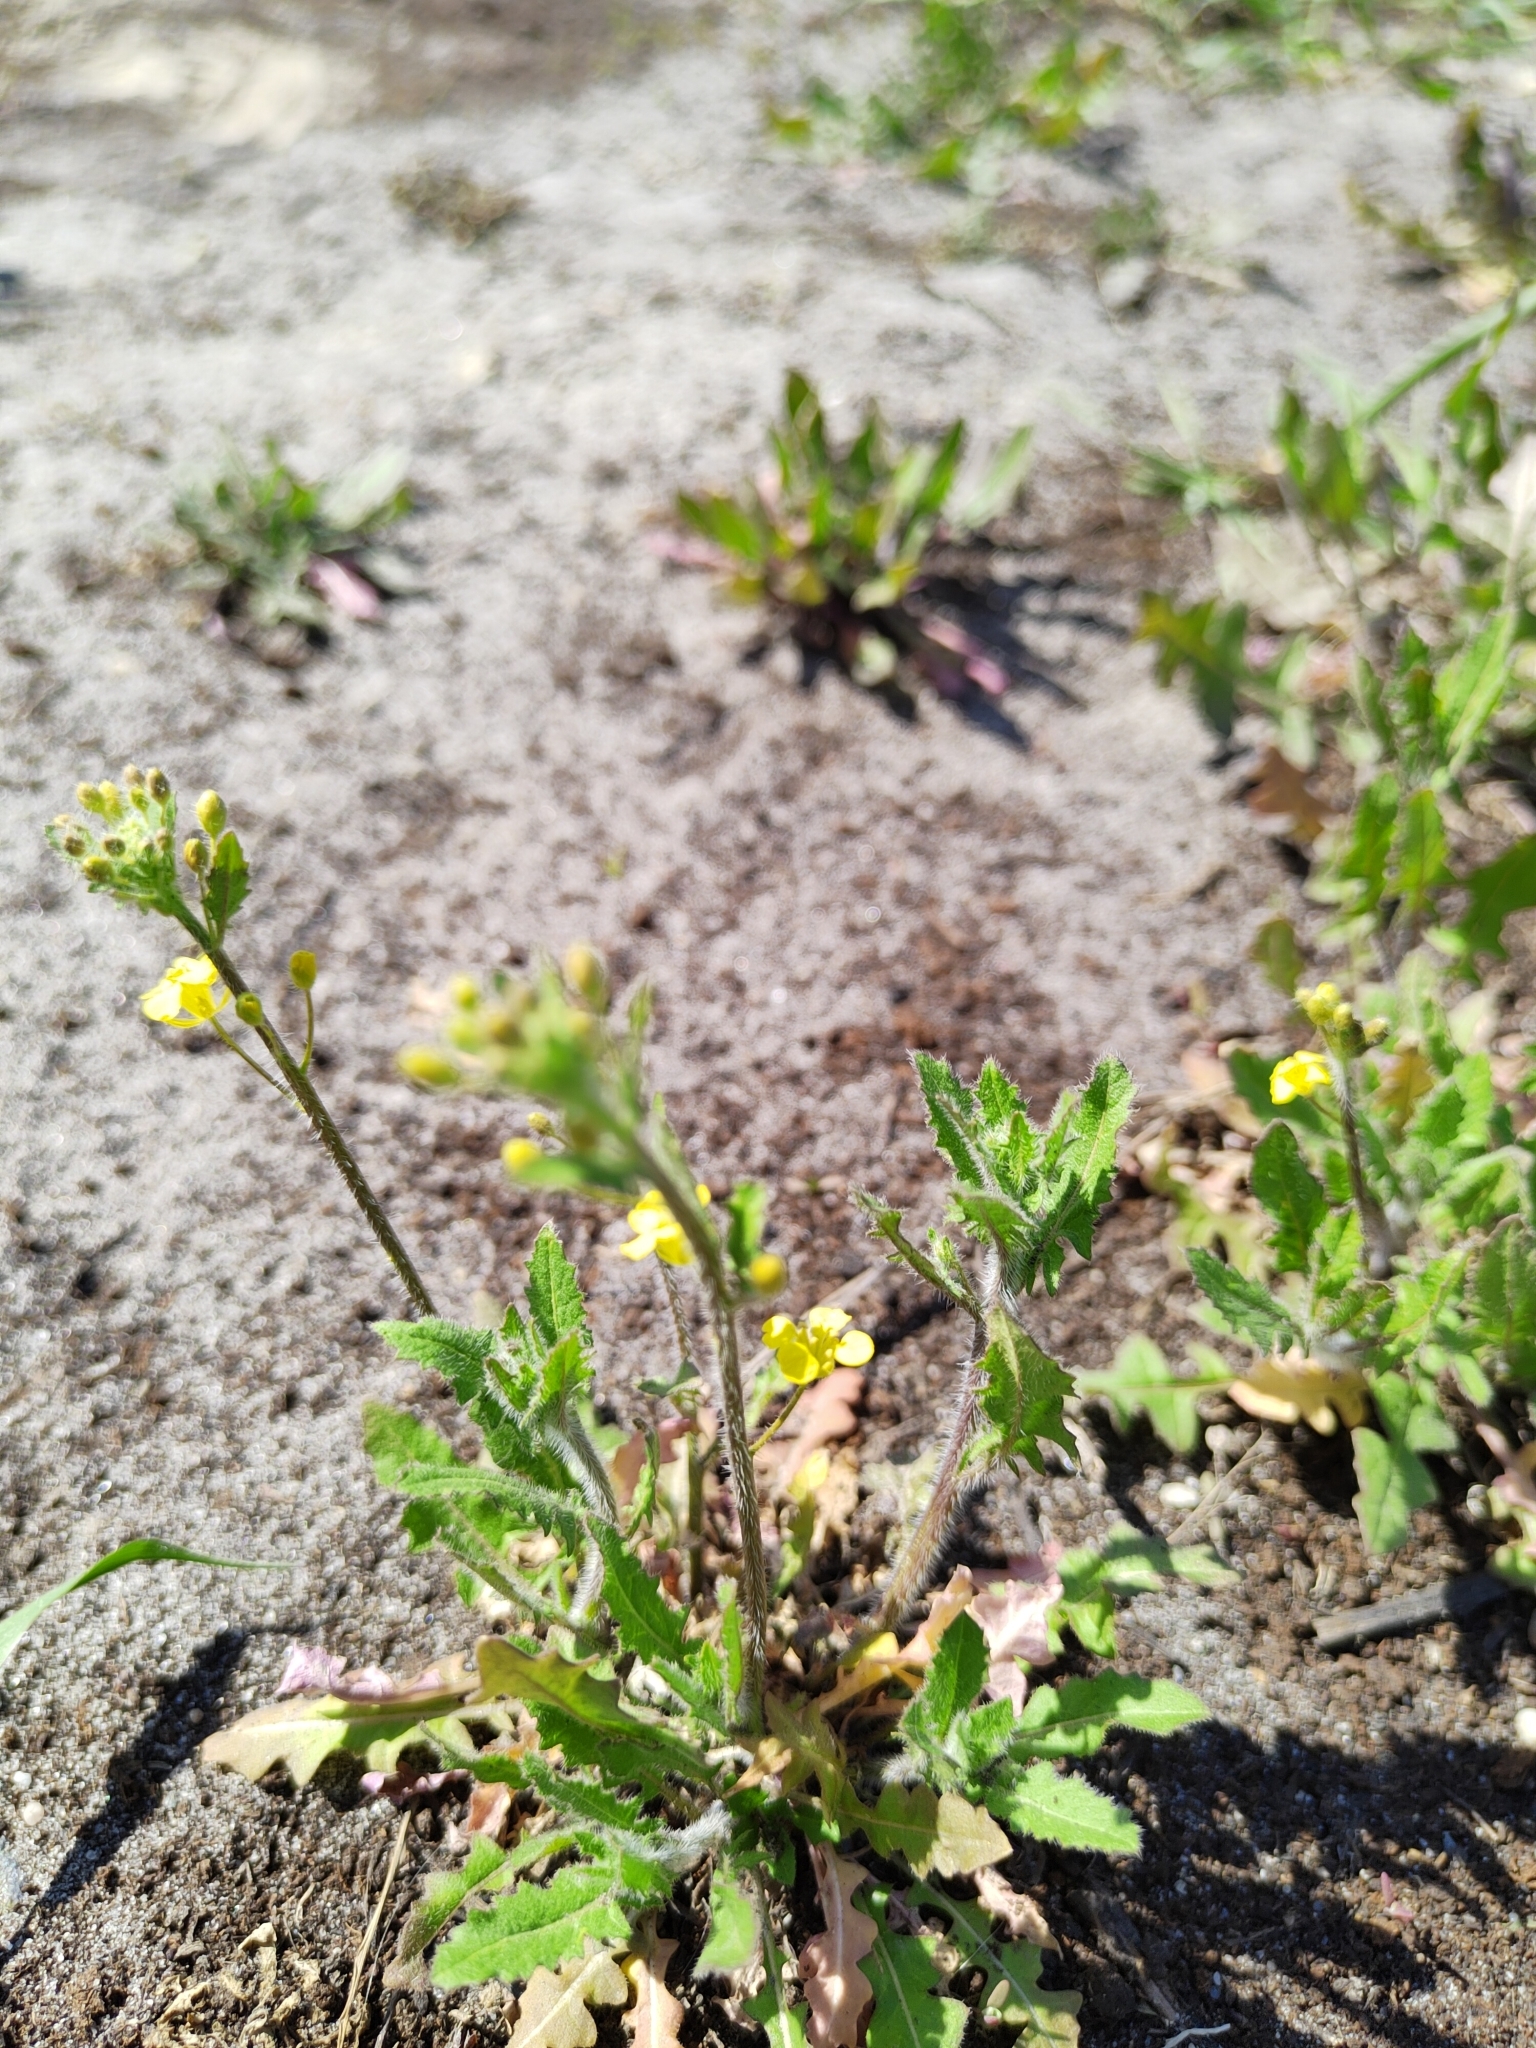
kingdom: Plantae
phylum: Tracheophyta
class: Magnoliopsida
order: Brassicales
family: Brassicaceae
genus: Sisymbrium
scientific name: Sisymbrium loeselii
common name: False london-rocket
